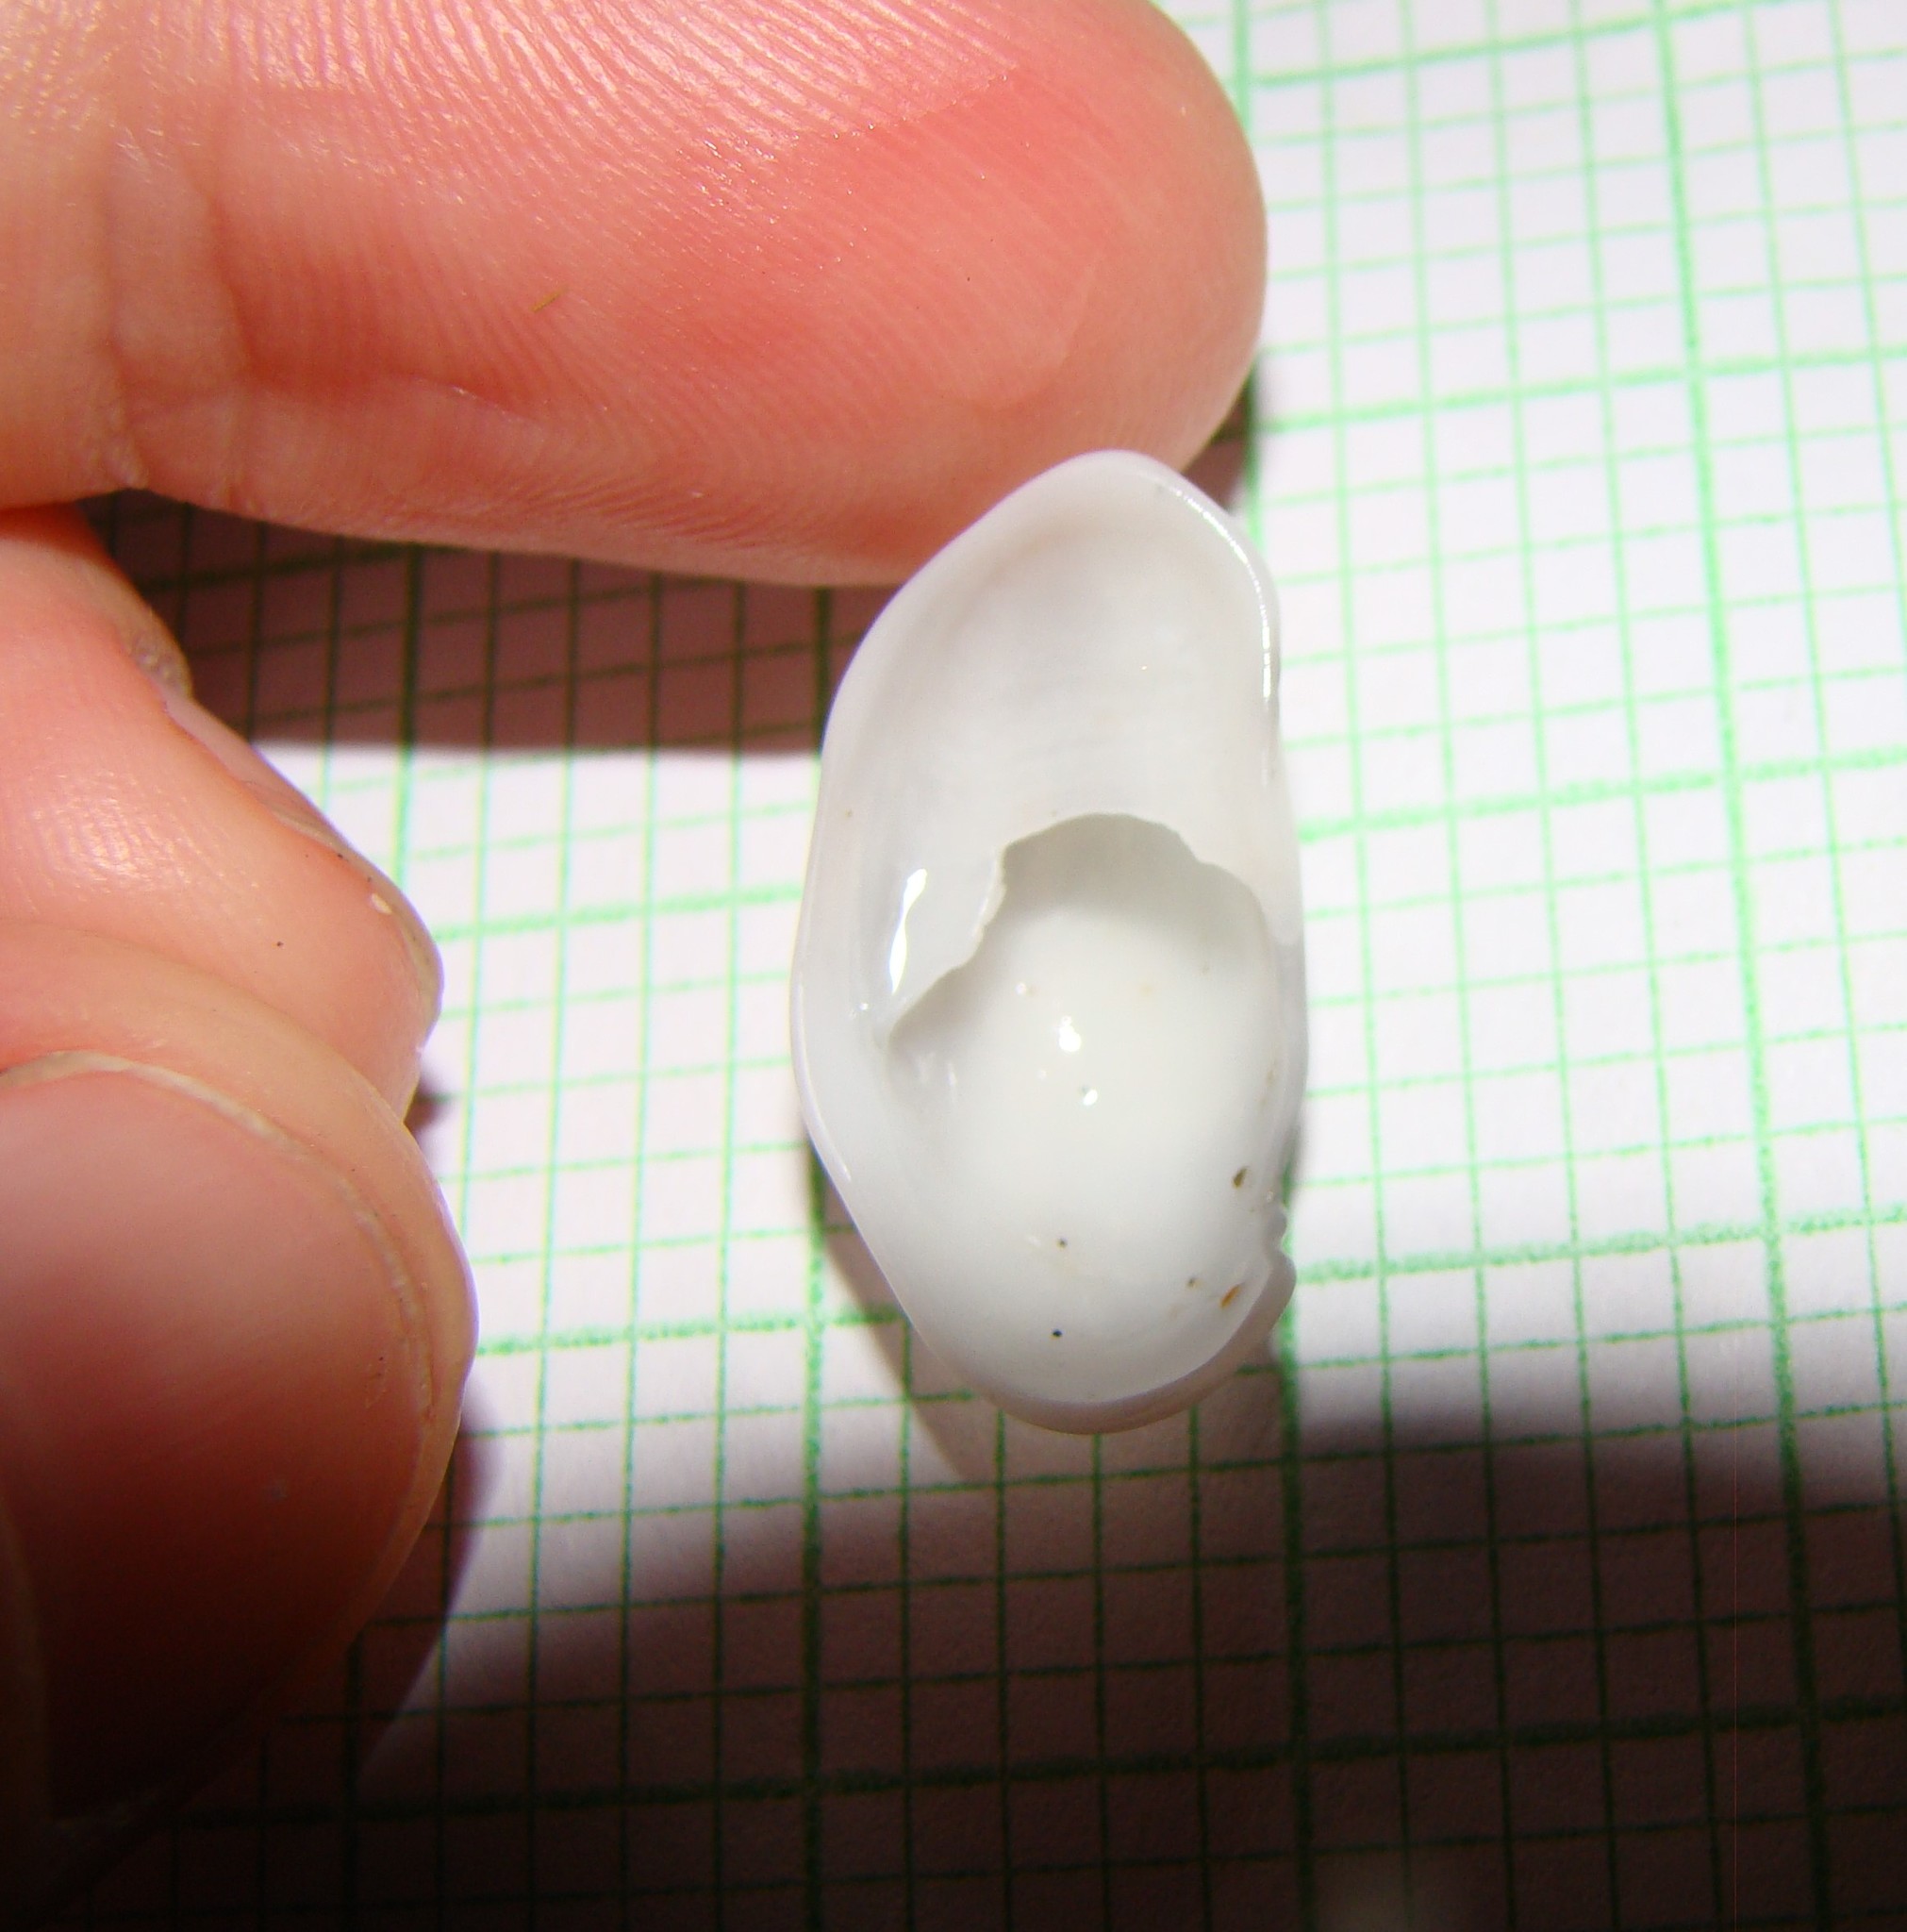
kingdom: Animalia
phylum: Mollusca
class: Gastropoda
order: Littorinimorpha
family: Calyptraeidae
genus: Maoricrypta
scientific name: Maoricrypta monoxyla
